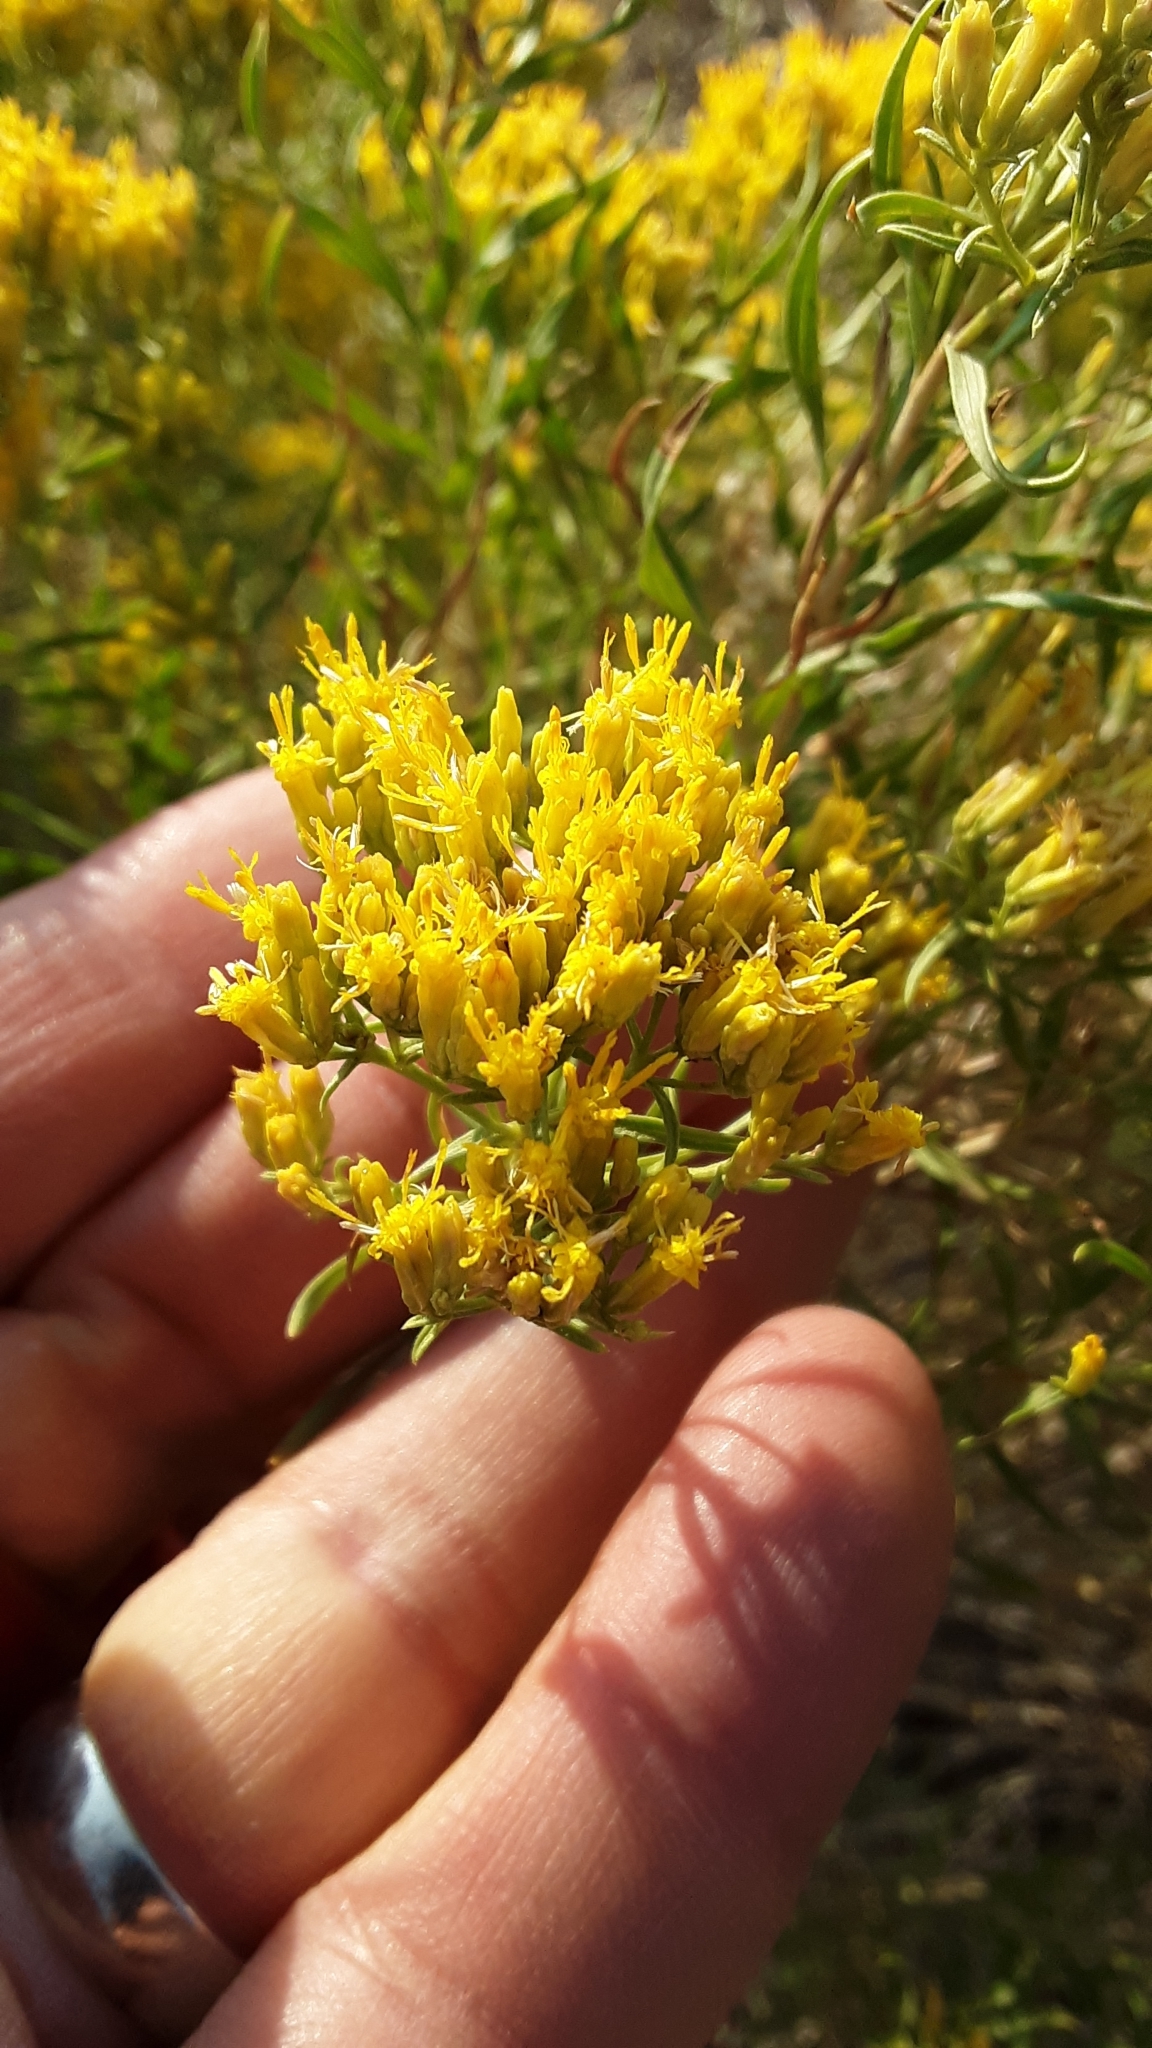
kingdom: Plantae
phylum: Tracheophyta
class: Magnoliopsida
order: Asterales
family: Asteraceae
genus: Ericameria
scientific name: Ericameria nauseosa
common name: Rubber rabbitbrush
